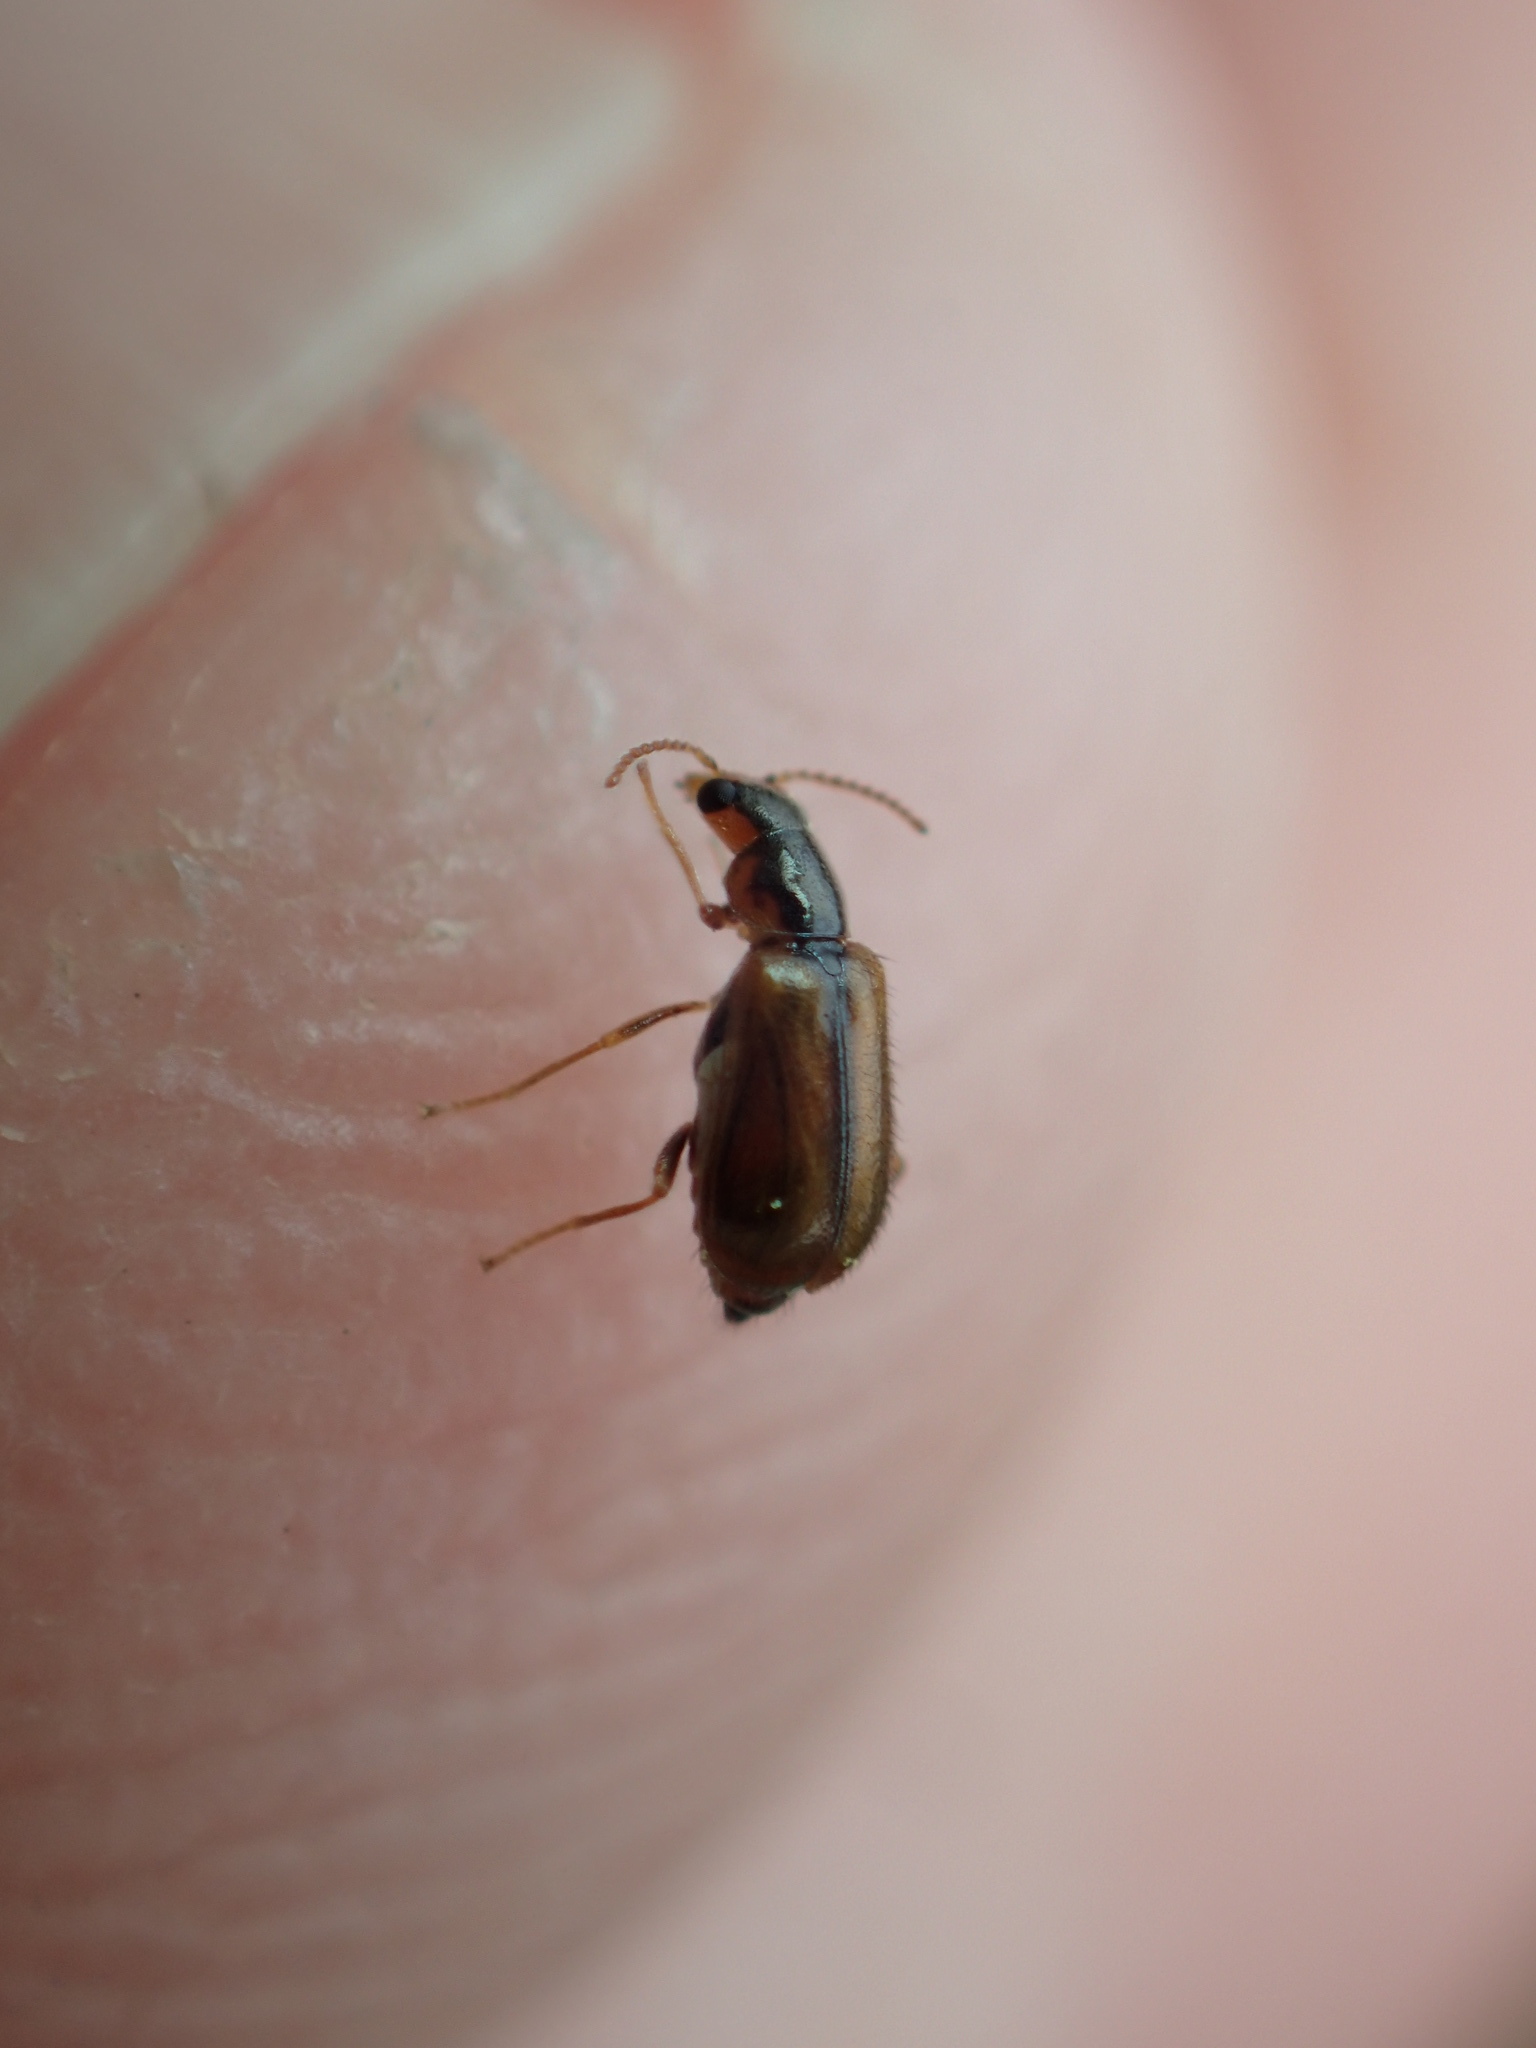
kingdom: Animalia
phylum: Arthropoda
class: Insecta
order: Coleoptera
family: Malachiidae
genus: Attalus
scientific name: Attalus
